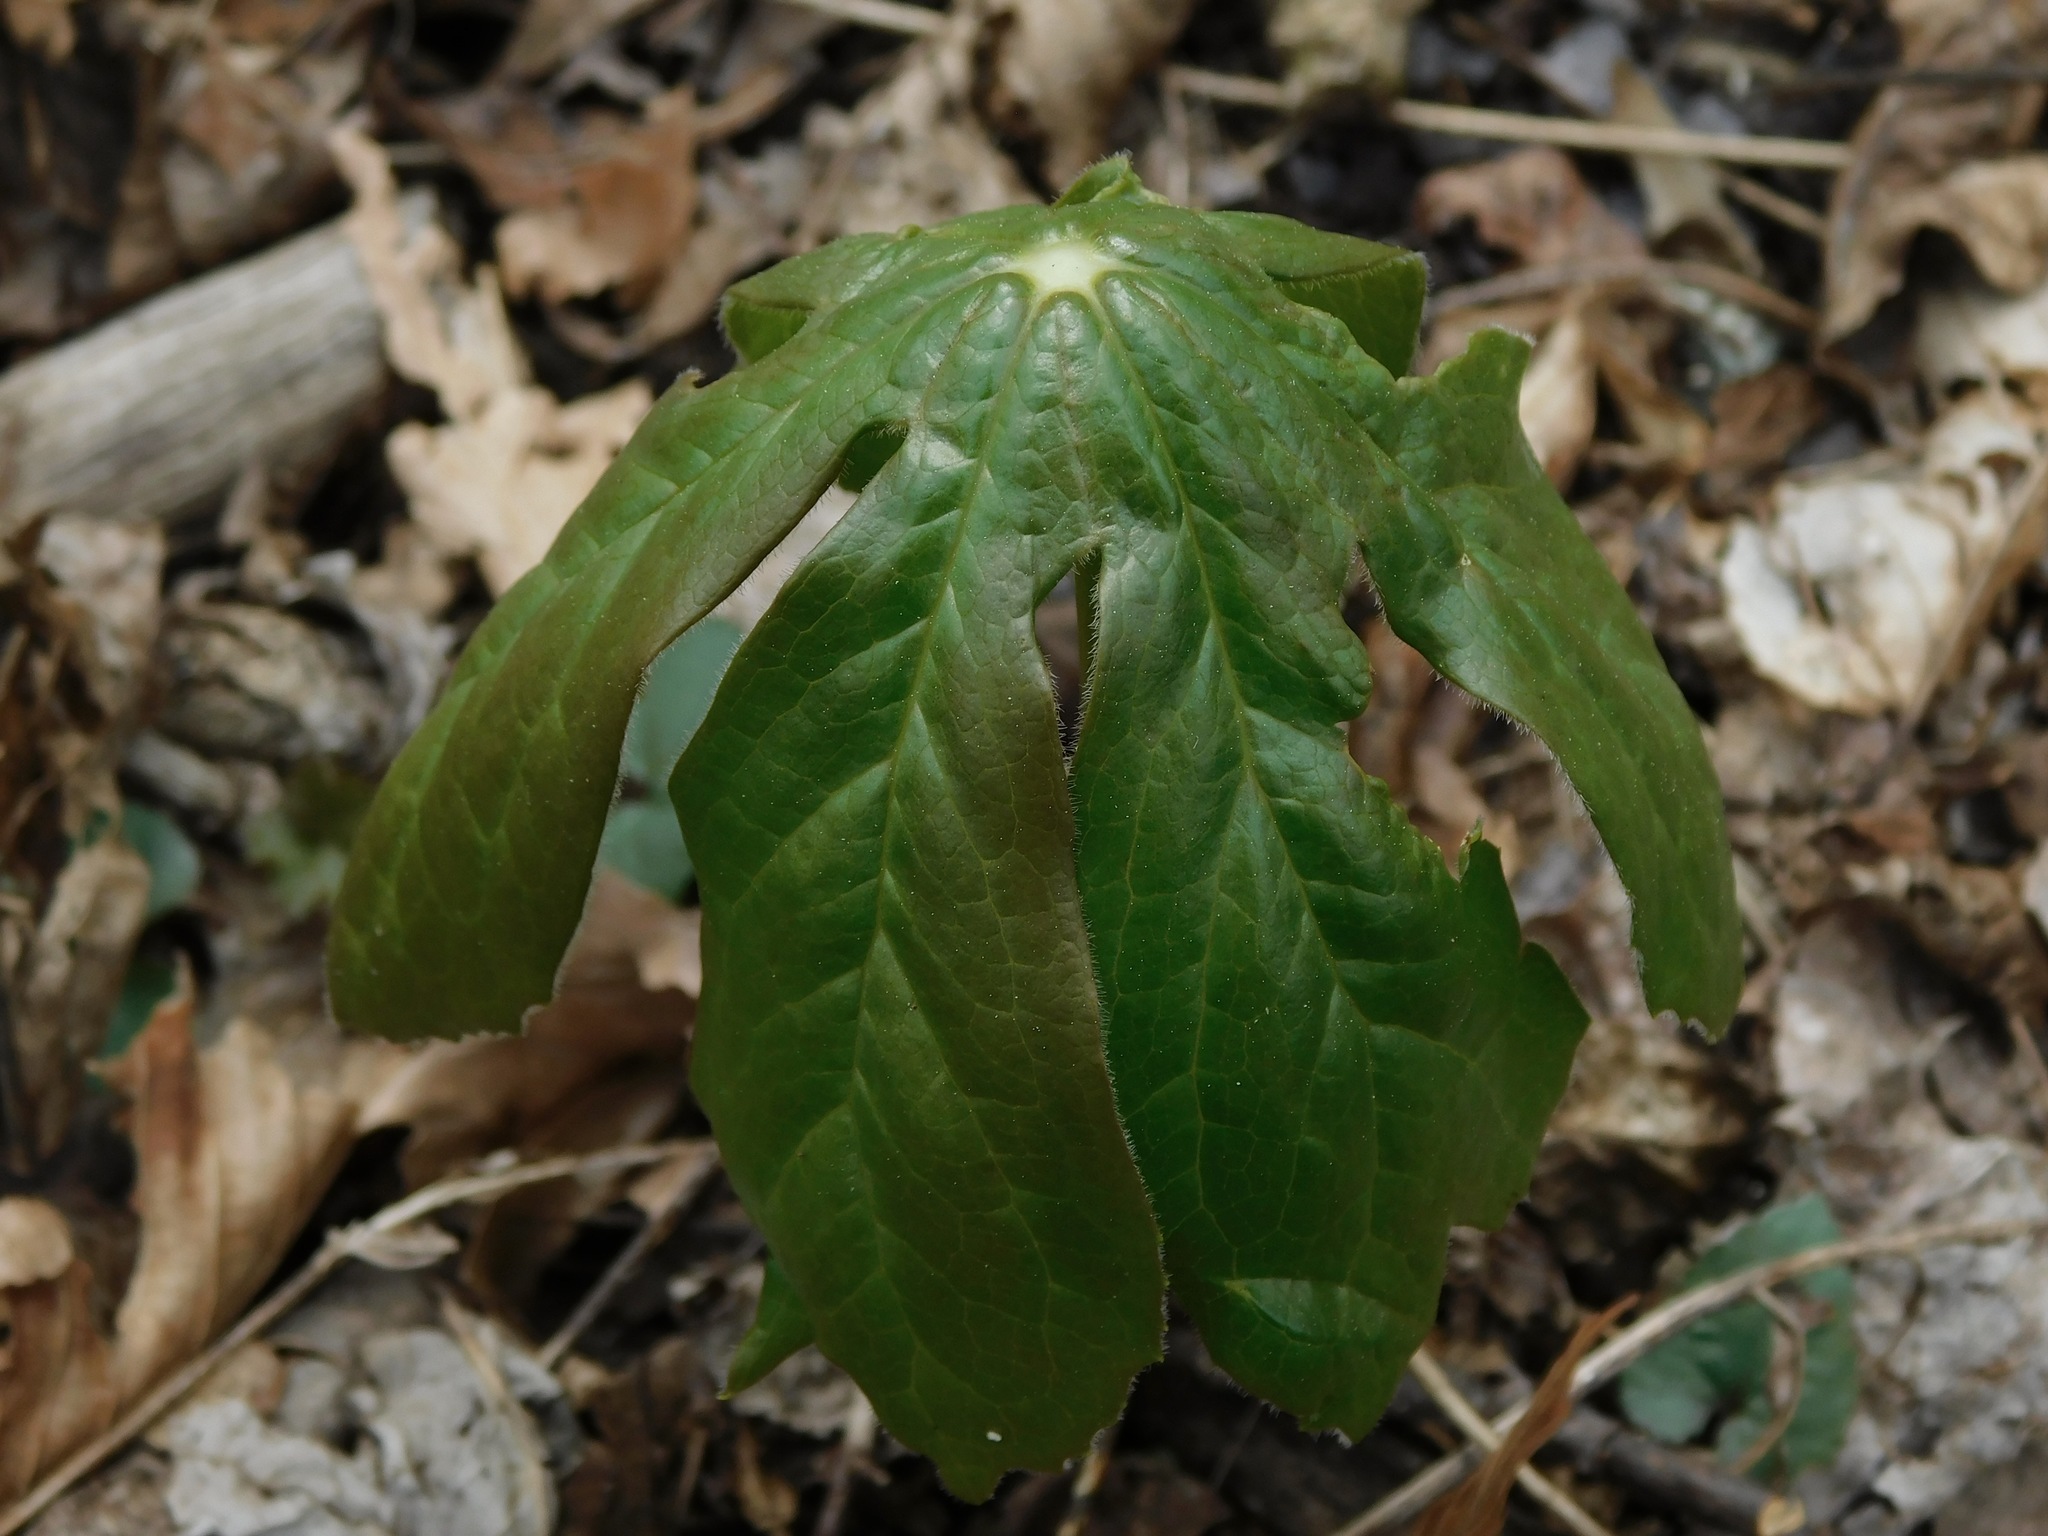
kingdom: Plantae
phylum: Tracheophyta
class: Magnoliopsida
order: Ranunculales
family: Berberidaceae
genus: Podophyllum
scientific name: Podophyllum peltatum
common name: Wild mandrake
